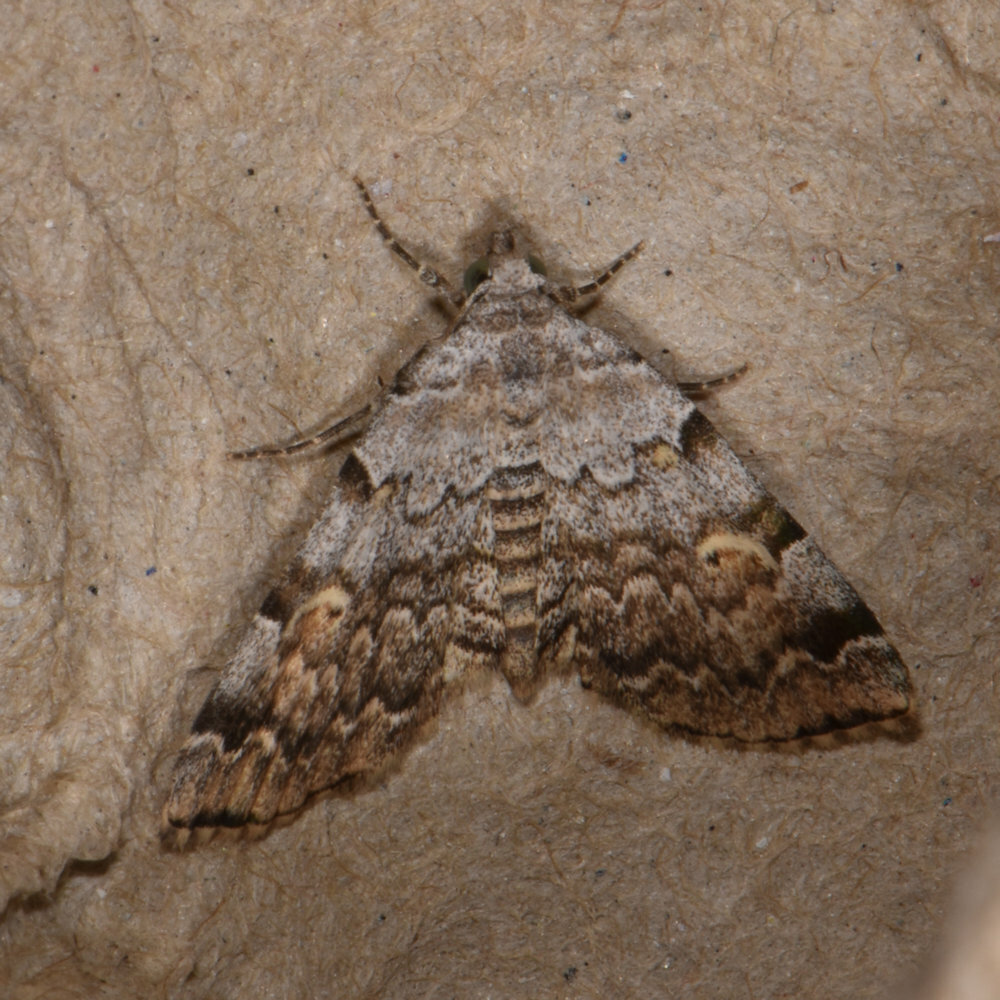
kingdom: Animalia
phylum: Arthropoda
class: Insecta
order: Lepidoptera
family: Erebidae
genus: Idia
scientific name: Idia americalis
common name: American idia moth
